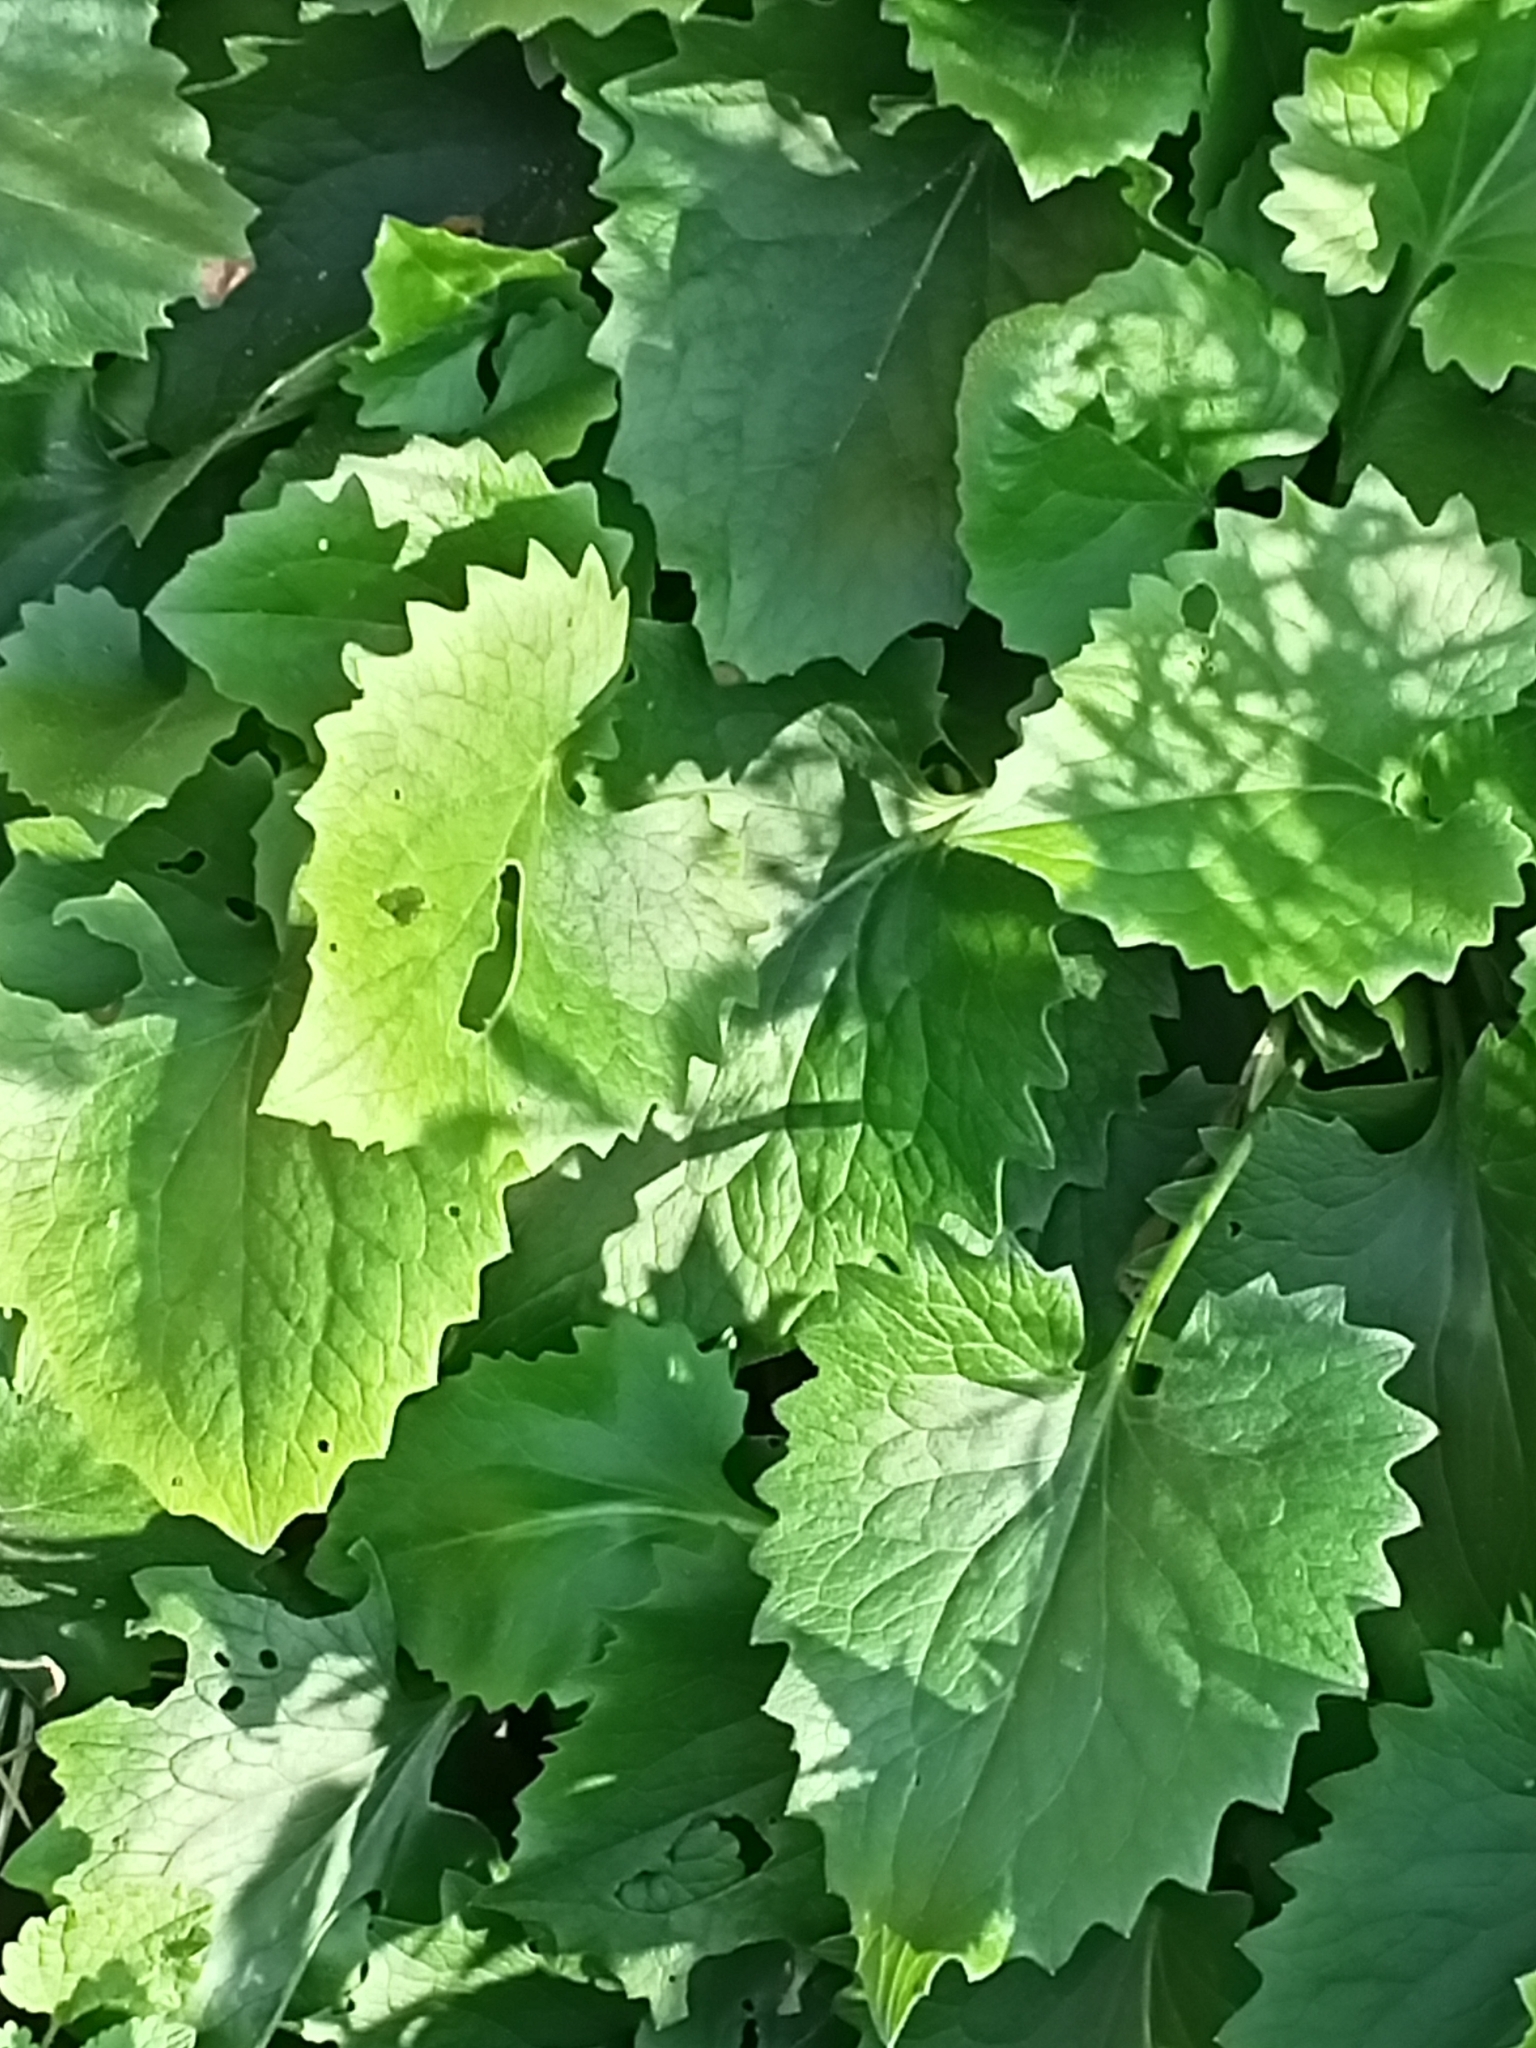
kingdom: Plantae
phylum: Tracheophyta
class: Magnoliopsida
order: Brassicales
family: Brassicaceae
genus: Alliaria
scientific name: Alliaria petiolata
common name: Garlic mustard
